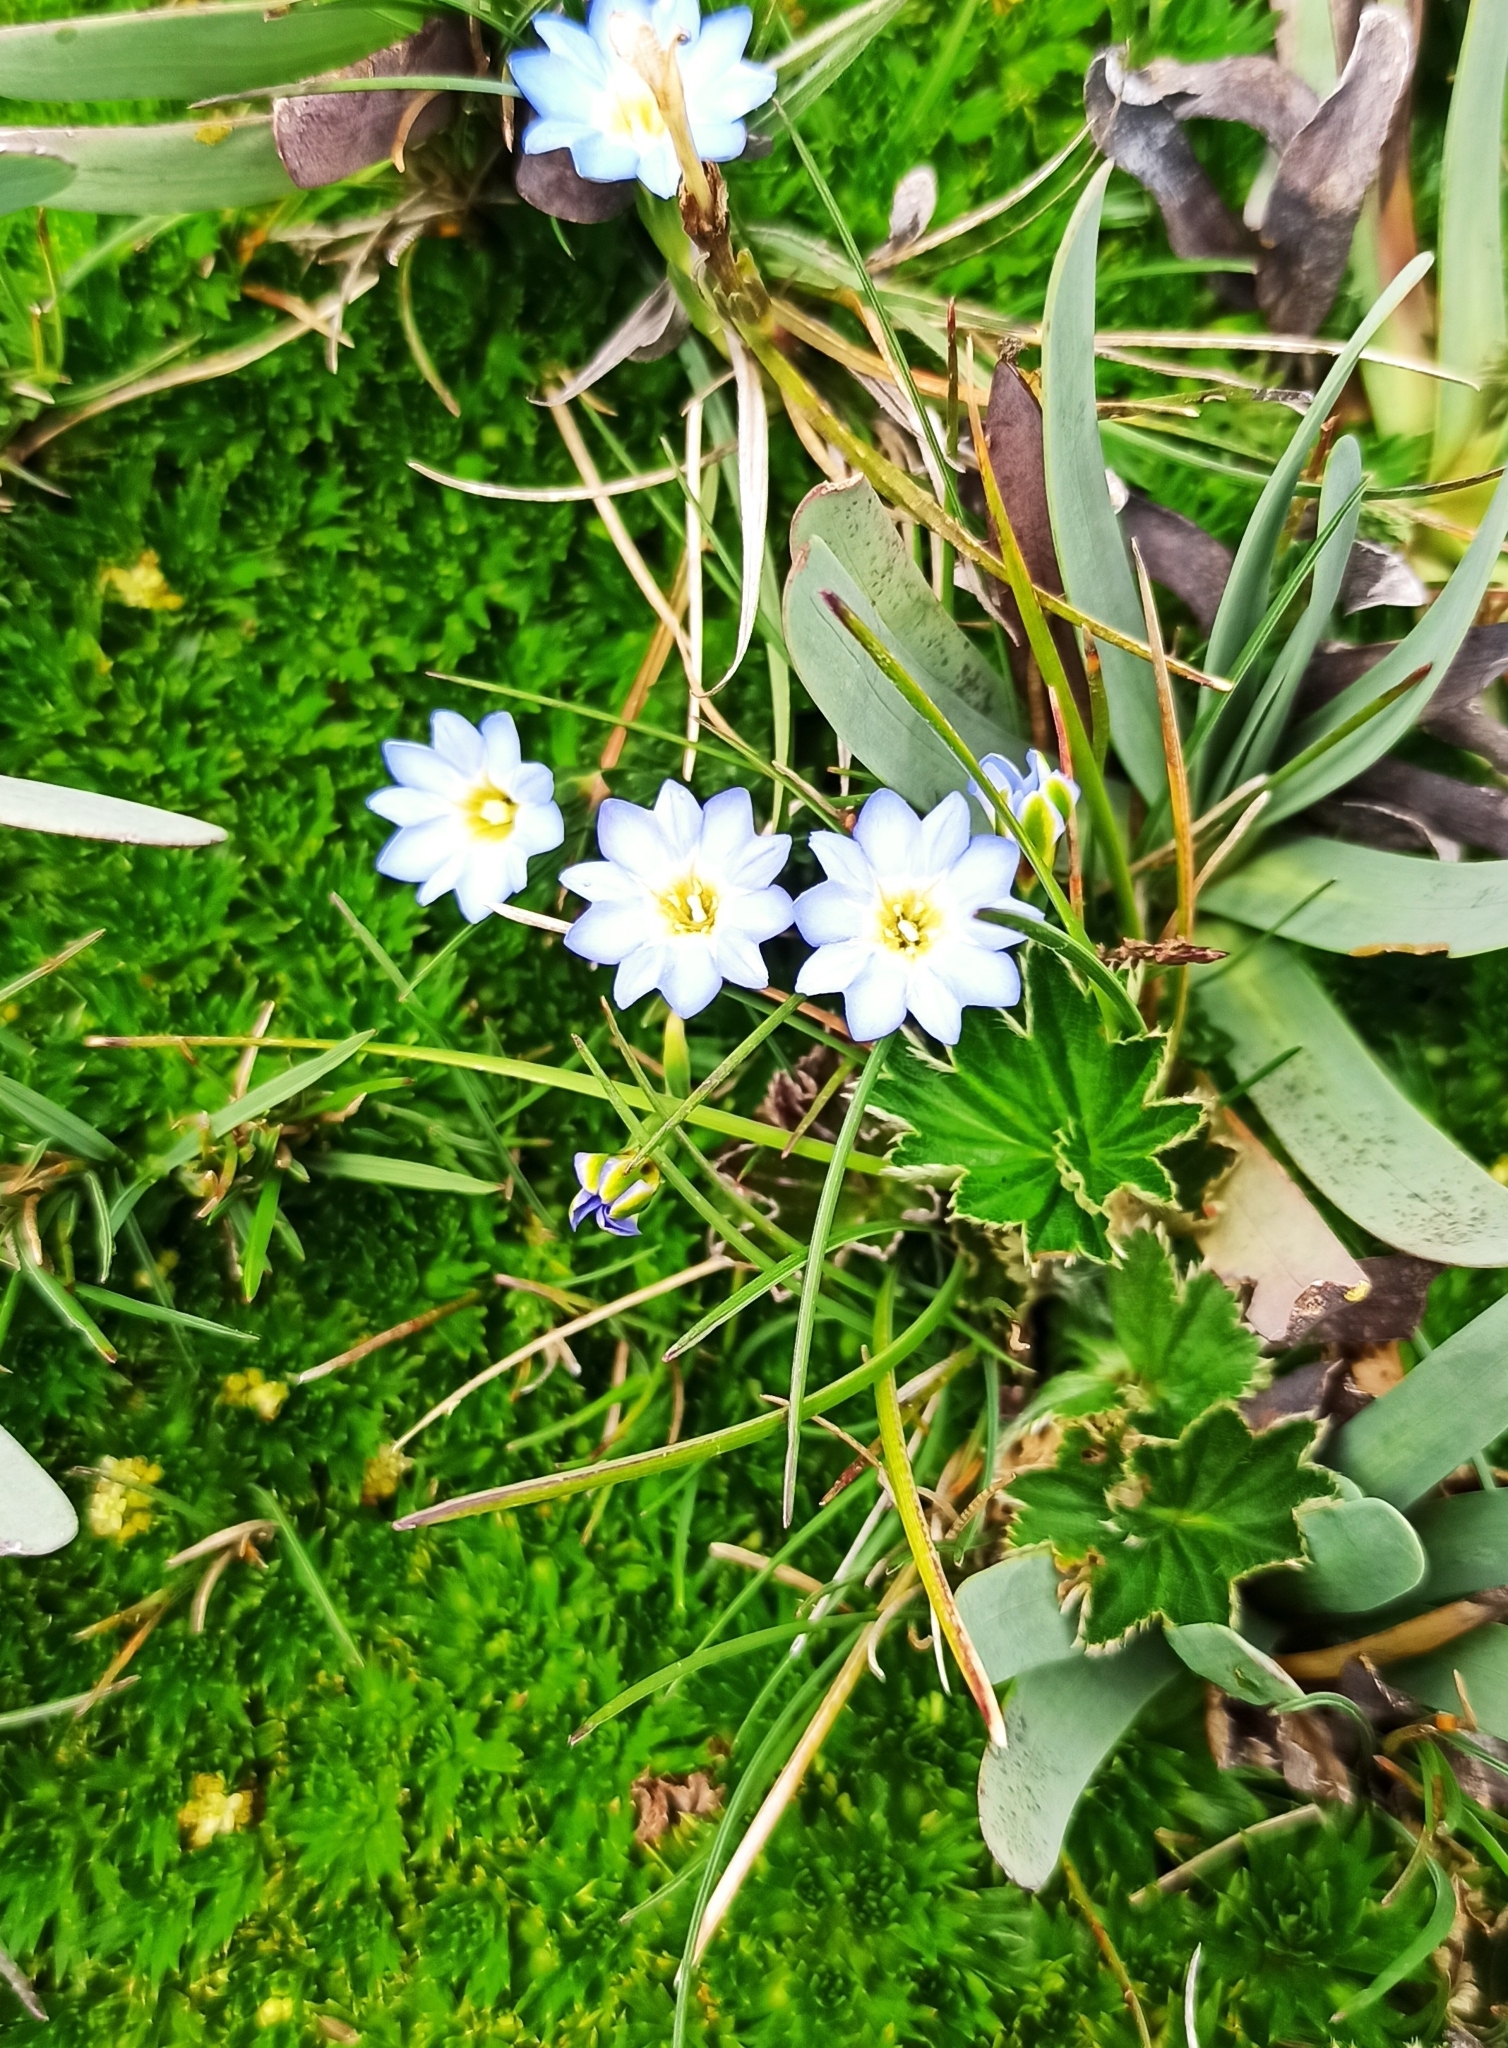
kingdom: Plantae
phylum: Tracheophyta
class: Magnoliopsida
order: Gentianales
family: Gentianaceae
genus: Gentiana
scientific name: Gentiana sedifolia
